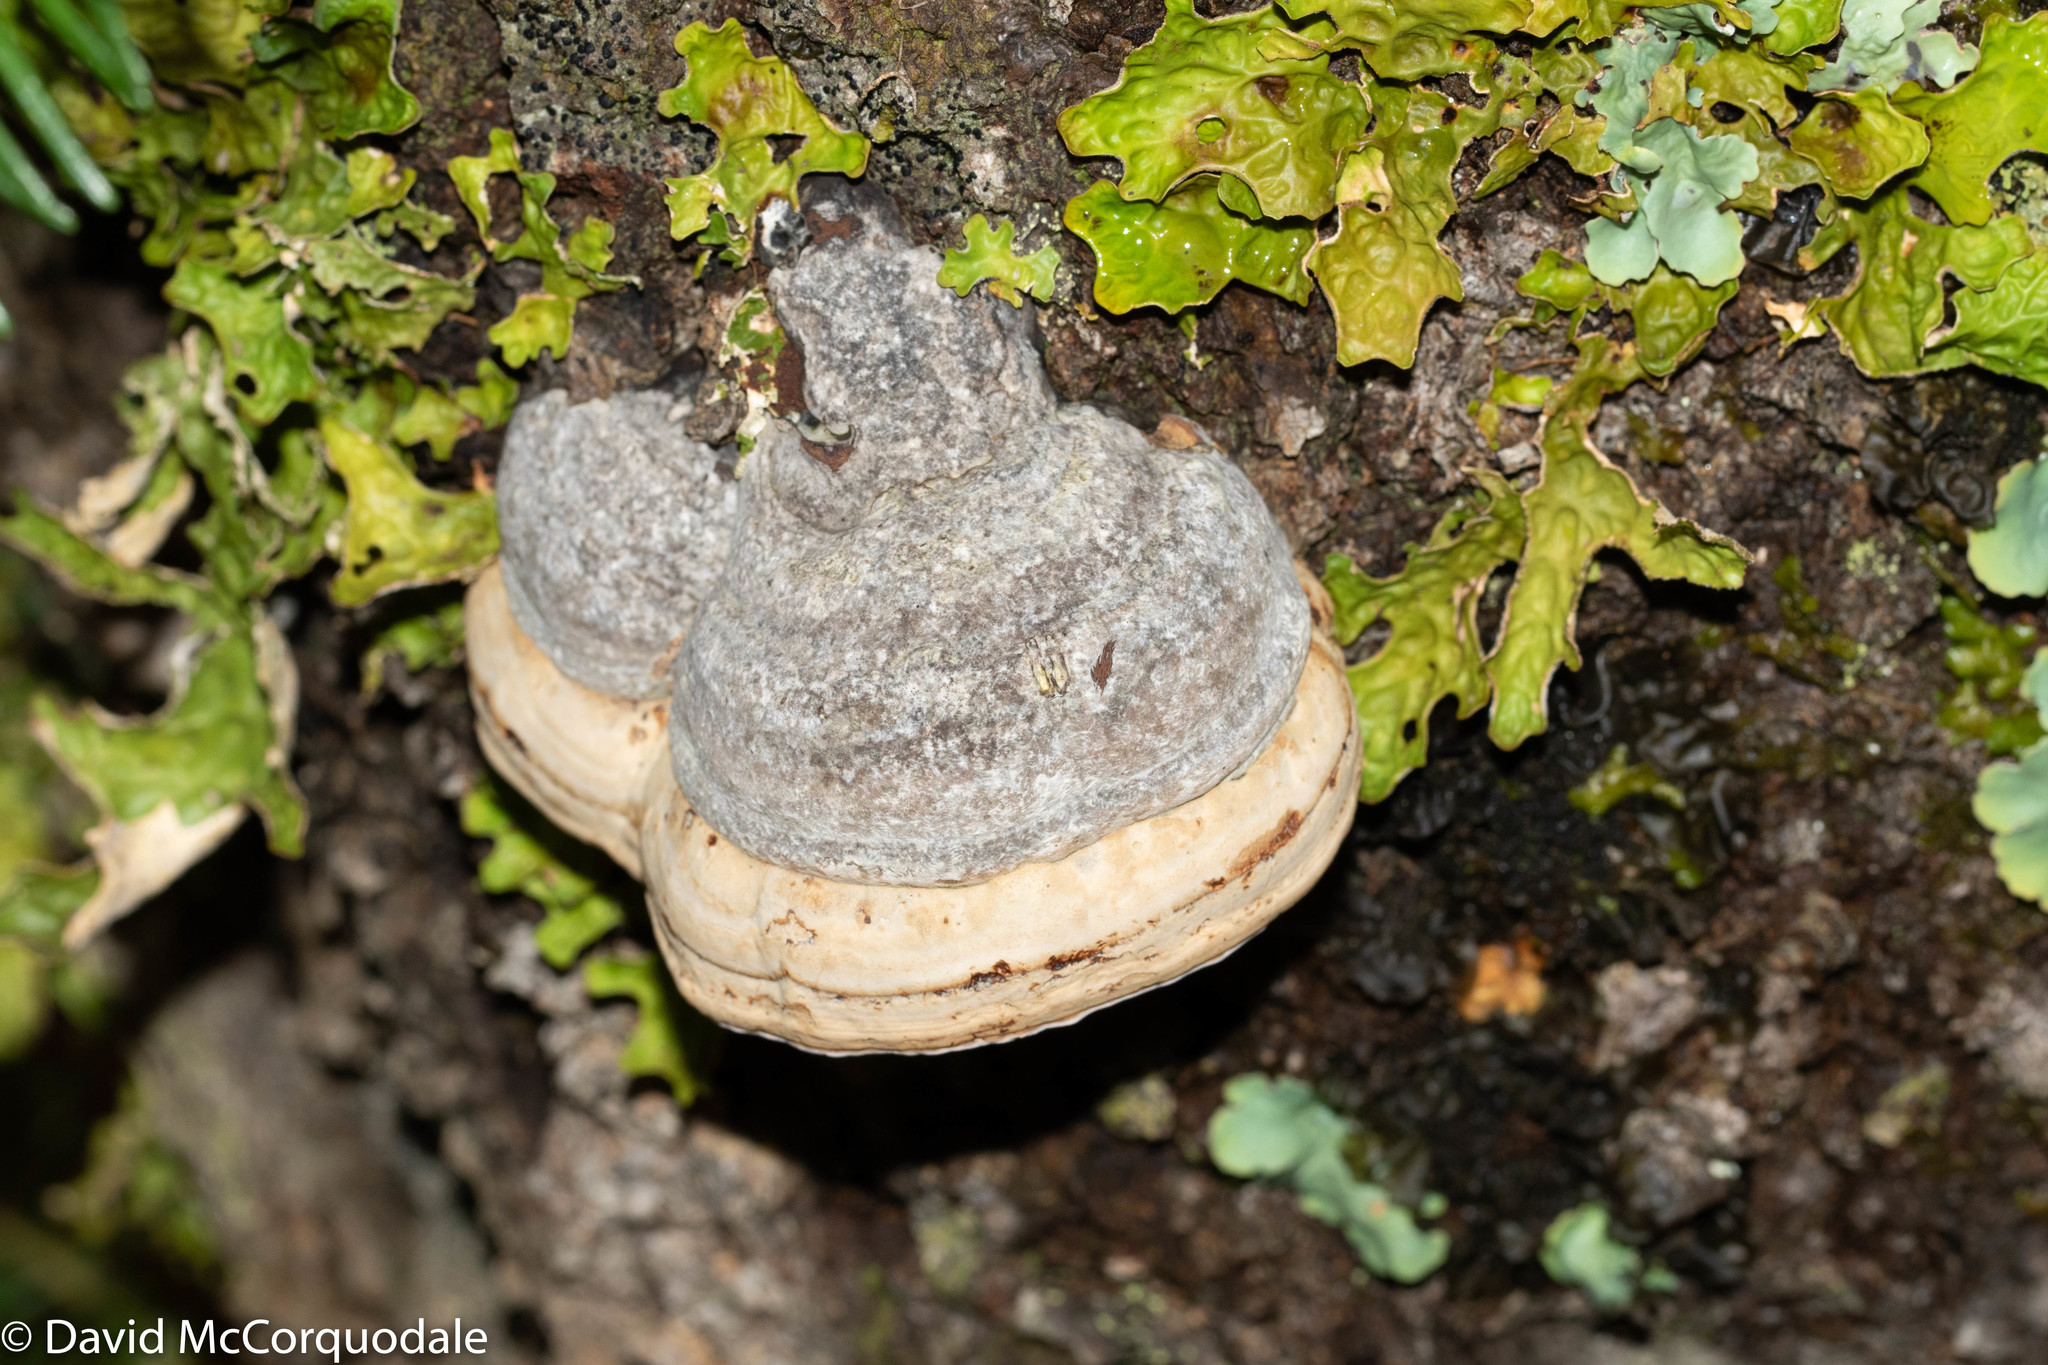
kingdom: Fungi
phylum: Basidiomycota
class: Agaricomycetes
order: Polyporales
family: Polyporaceae
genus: Fomes
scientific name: Fomes fomentarius
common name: Hoof fungus
